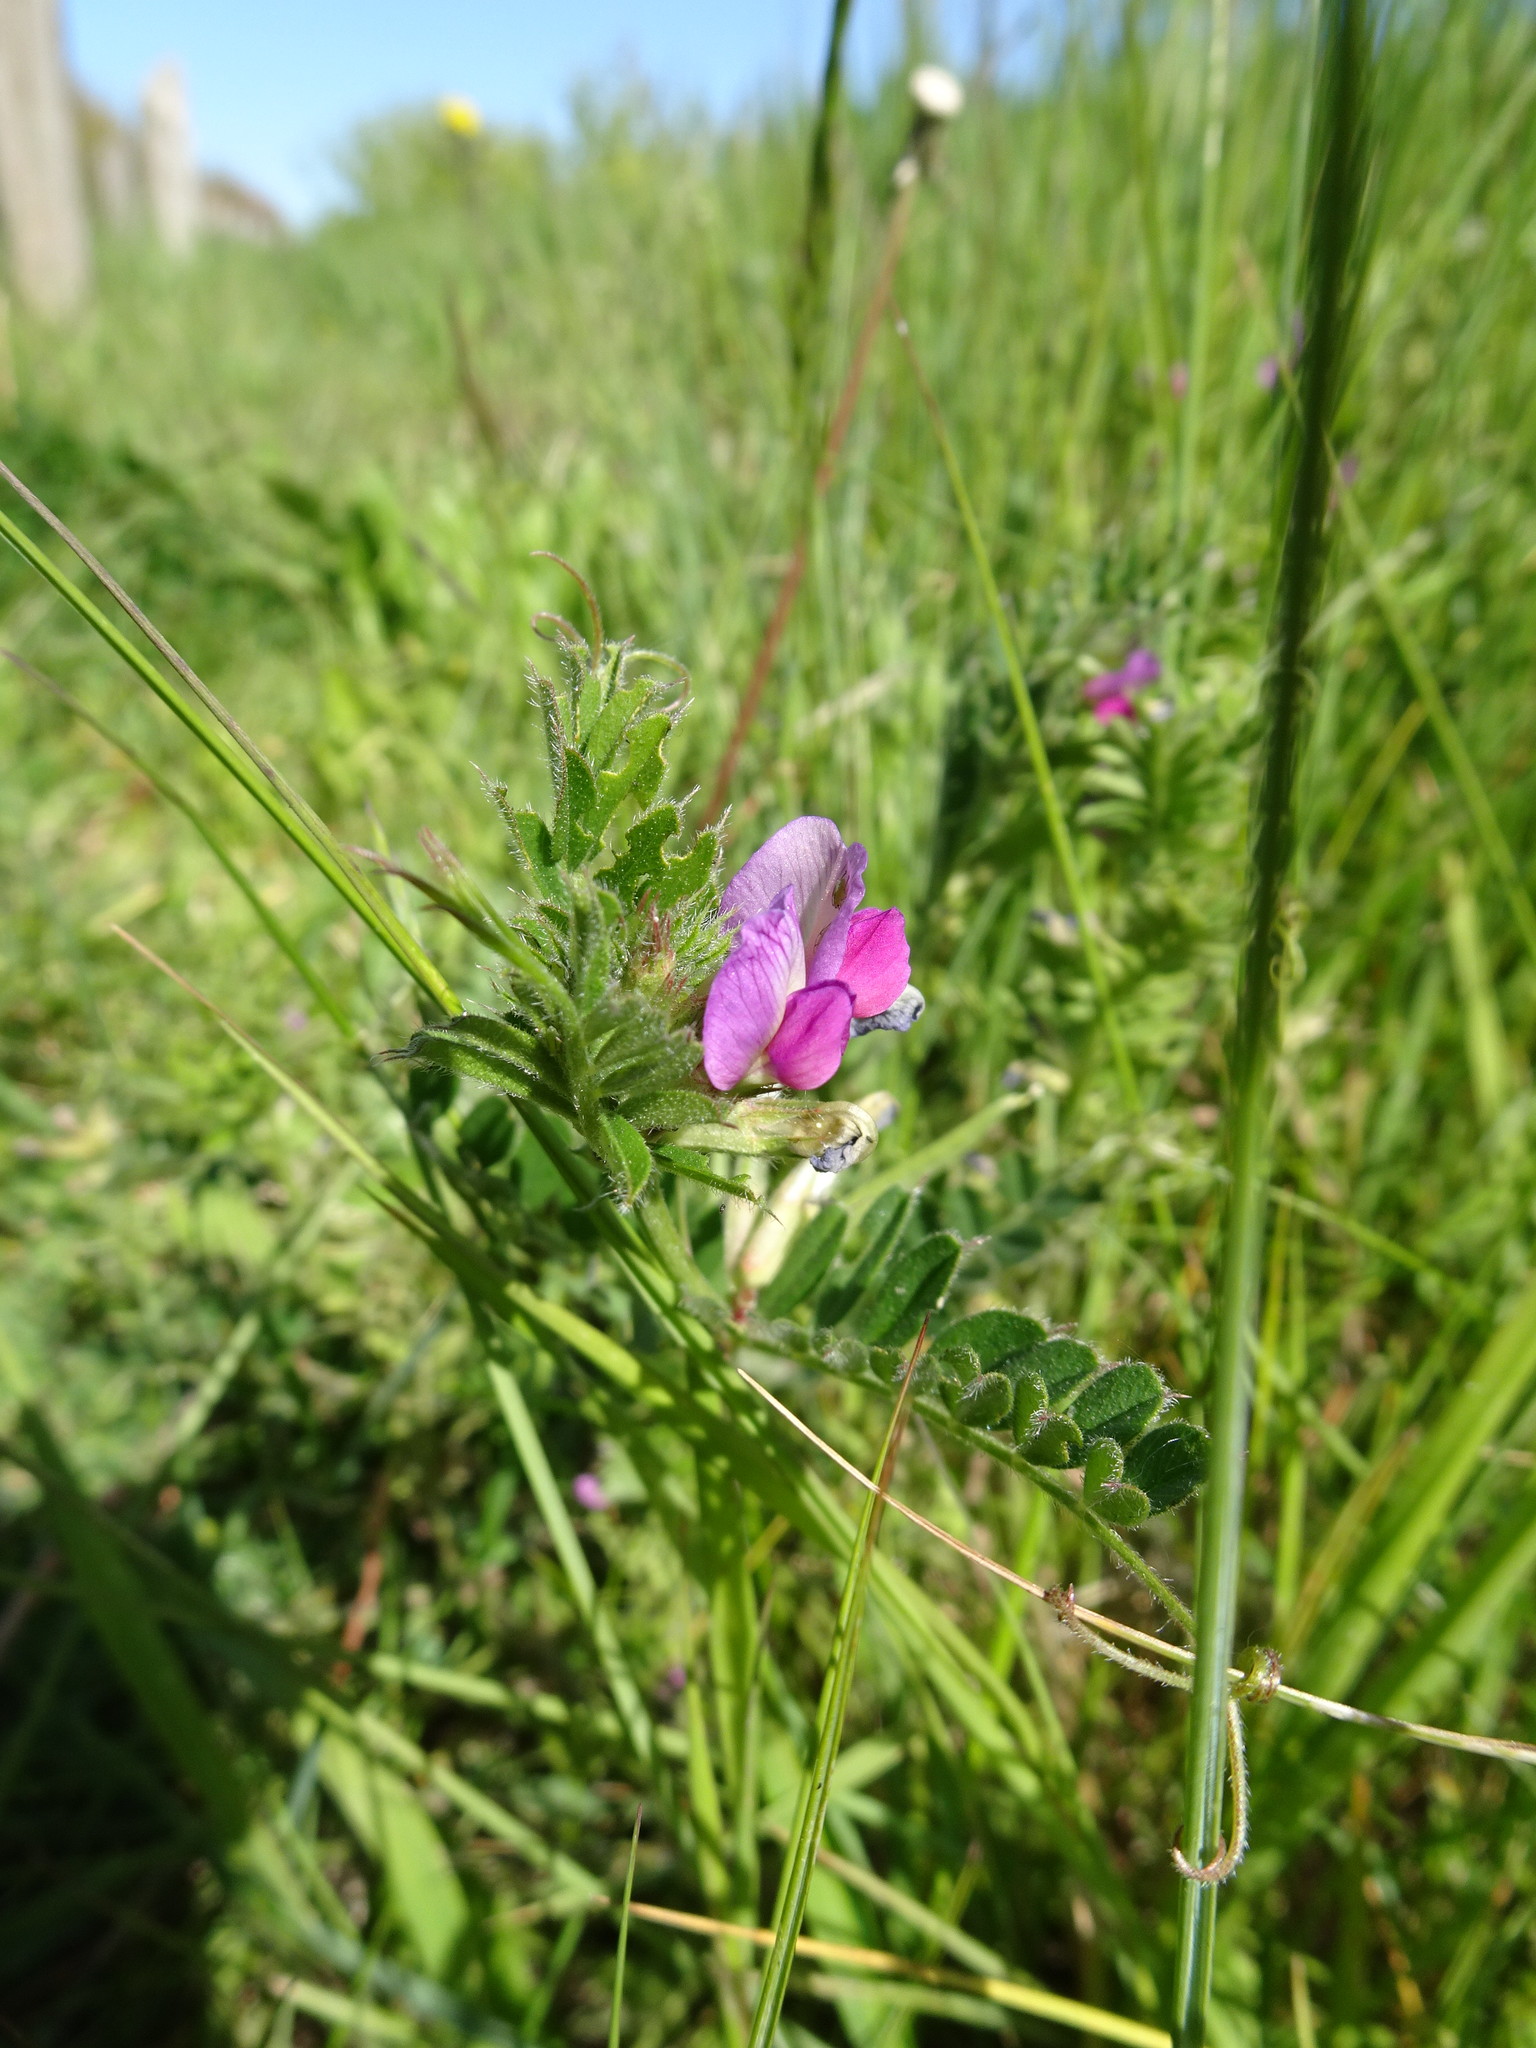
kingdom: Plantae
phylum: Tracheophyta
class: Magnoliopsida
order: Fabales
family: Fabaceae
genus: Vicia
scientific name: Vicia sativa
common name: Garden vetch
